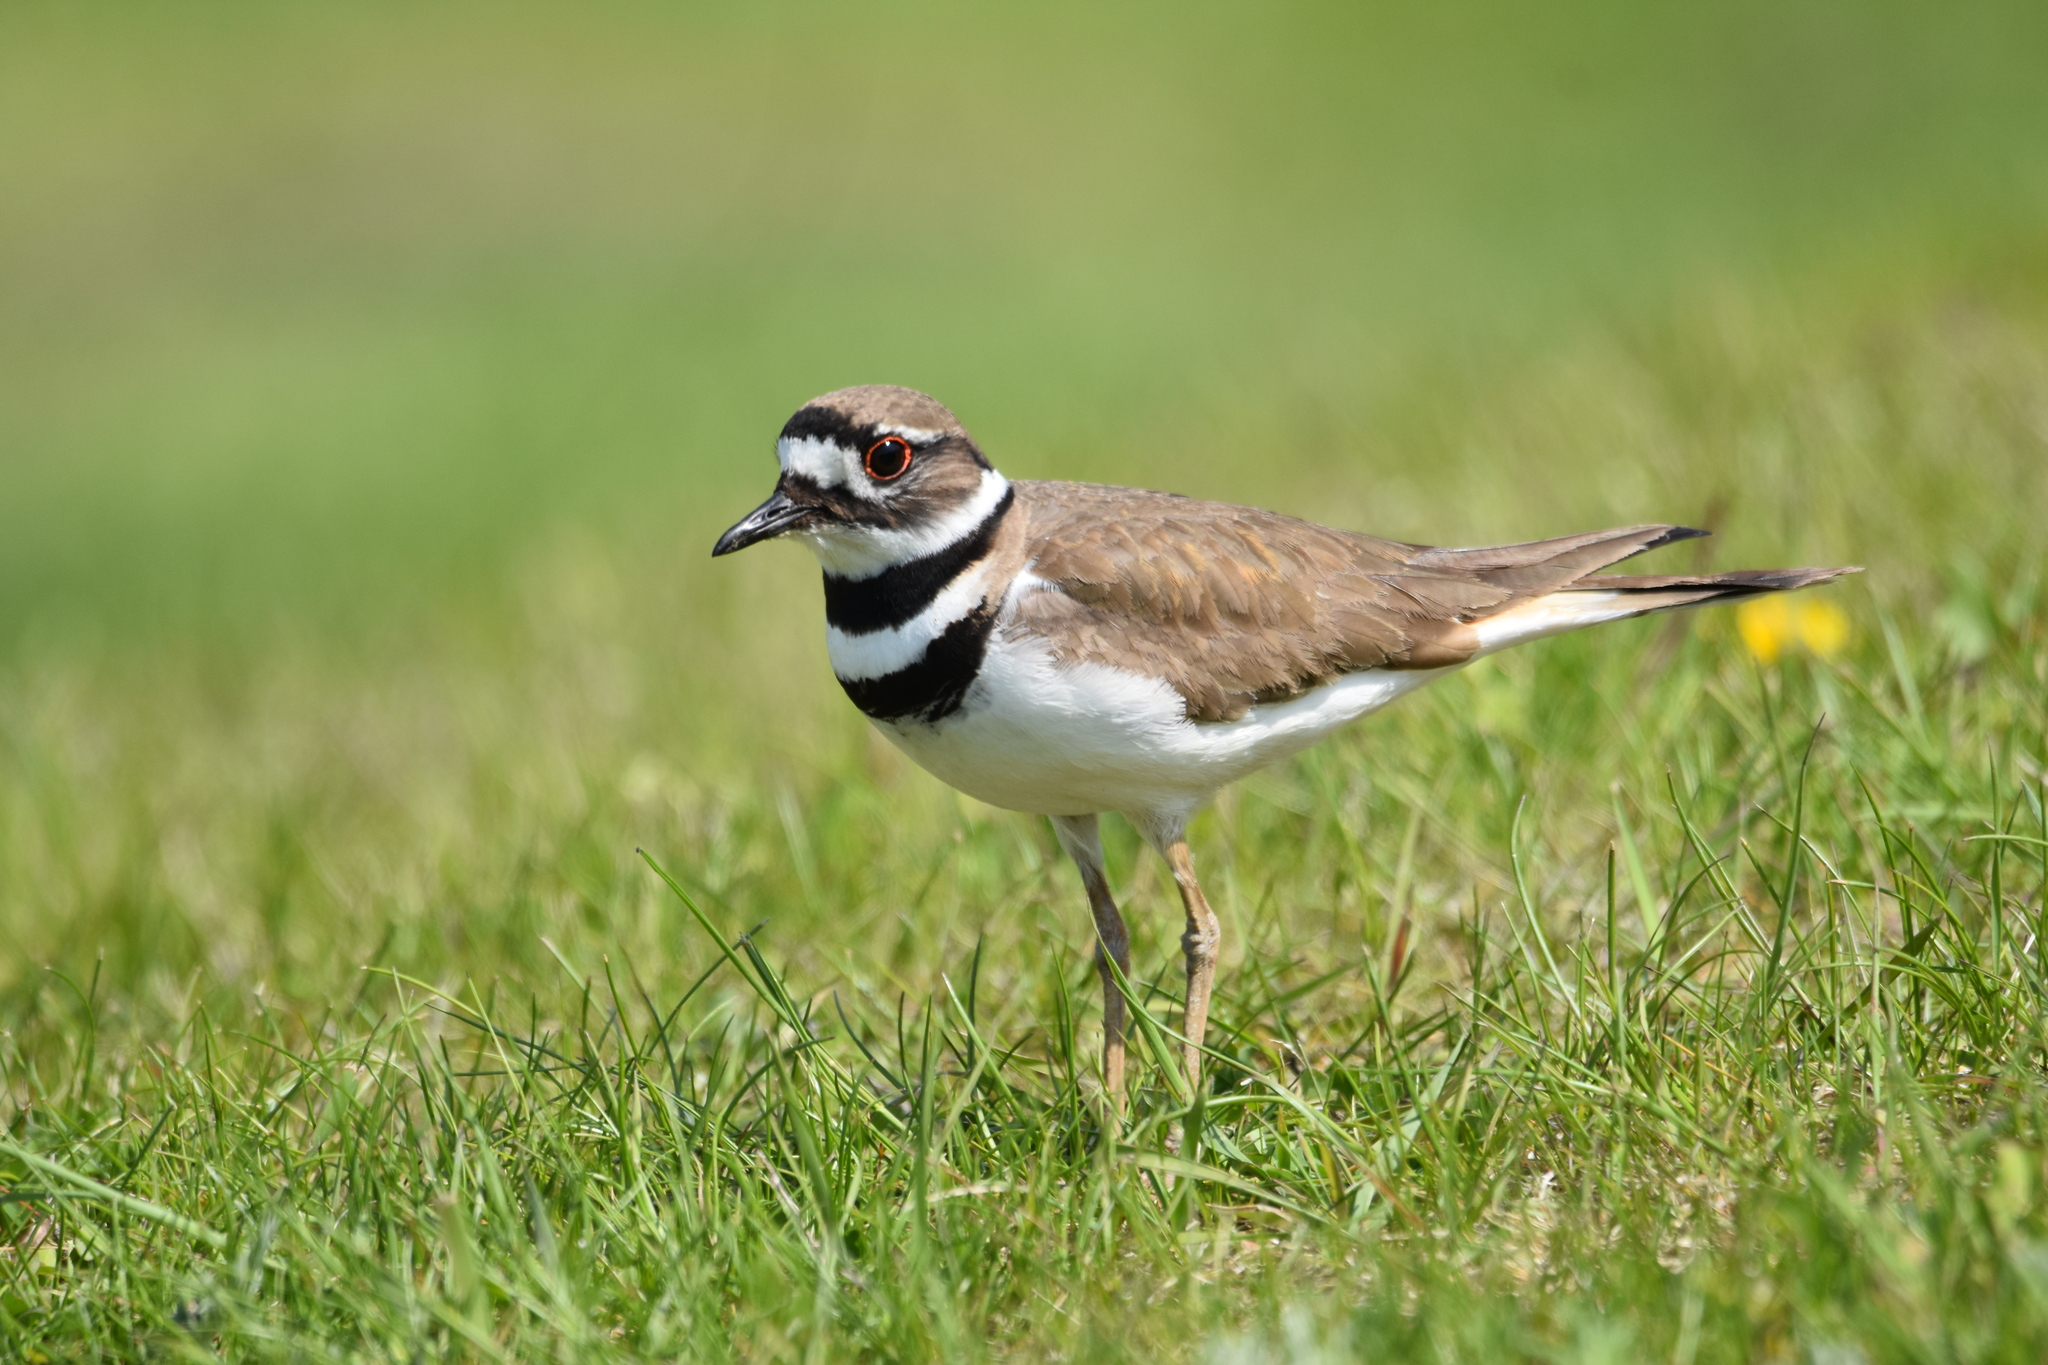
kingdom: Animalia
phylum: Chordata
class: Aves
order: Charadriiformes
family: Charadriidae
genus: Charadrius
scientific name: Charadrius vociferus
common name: Killdeer
